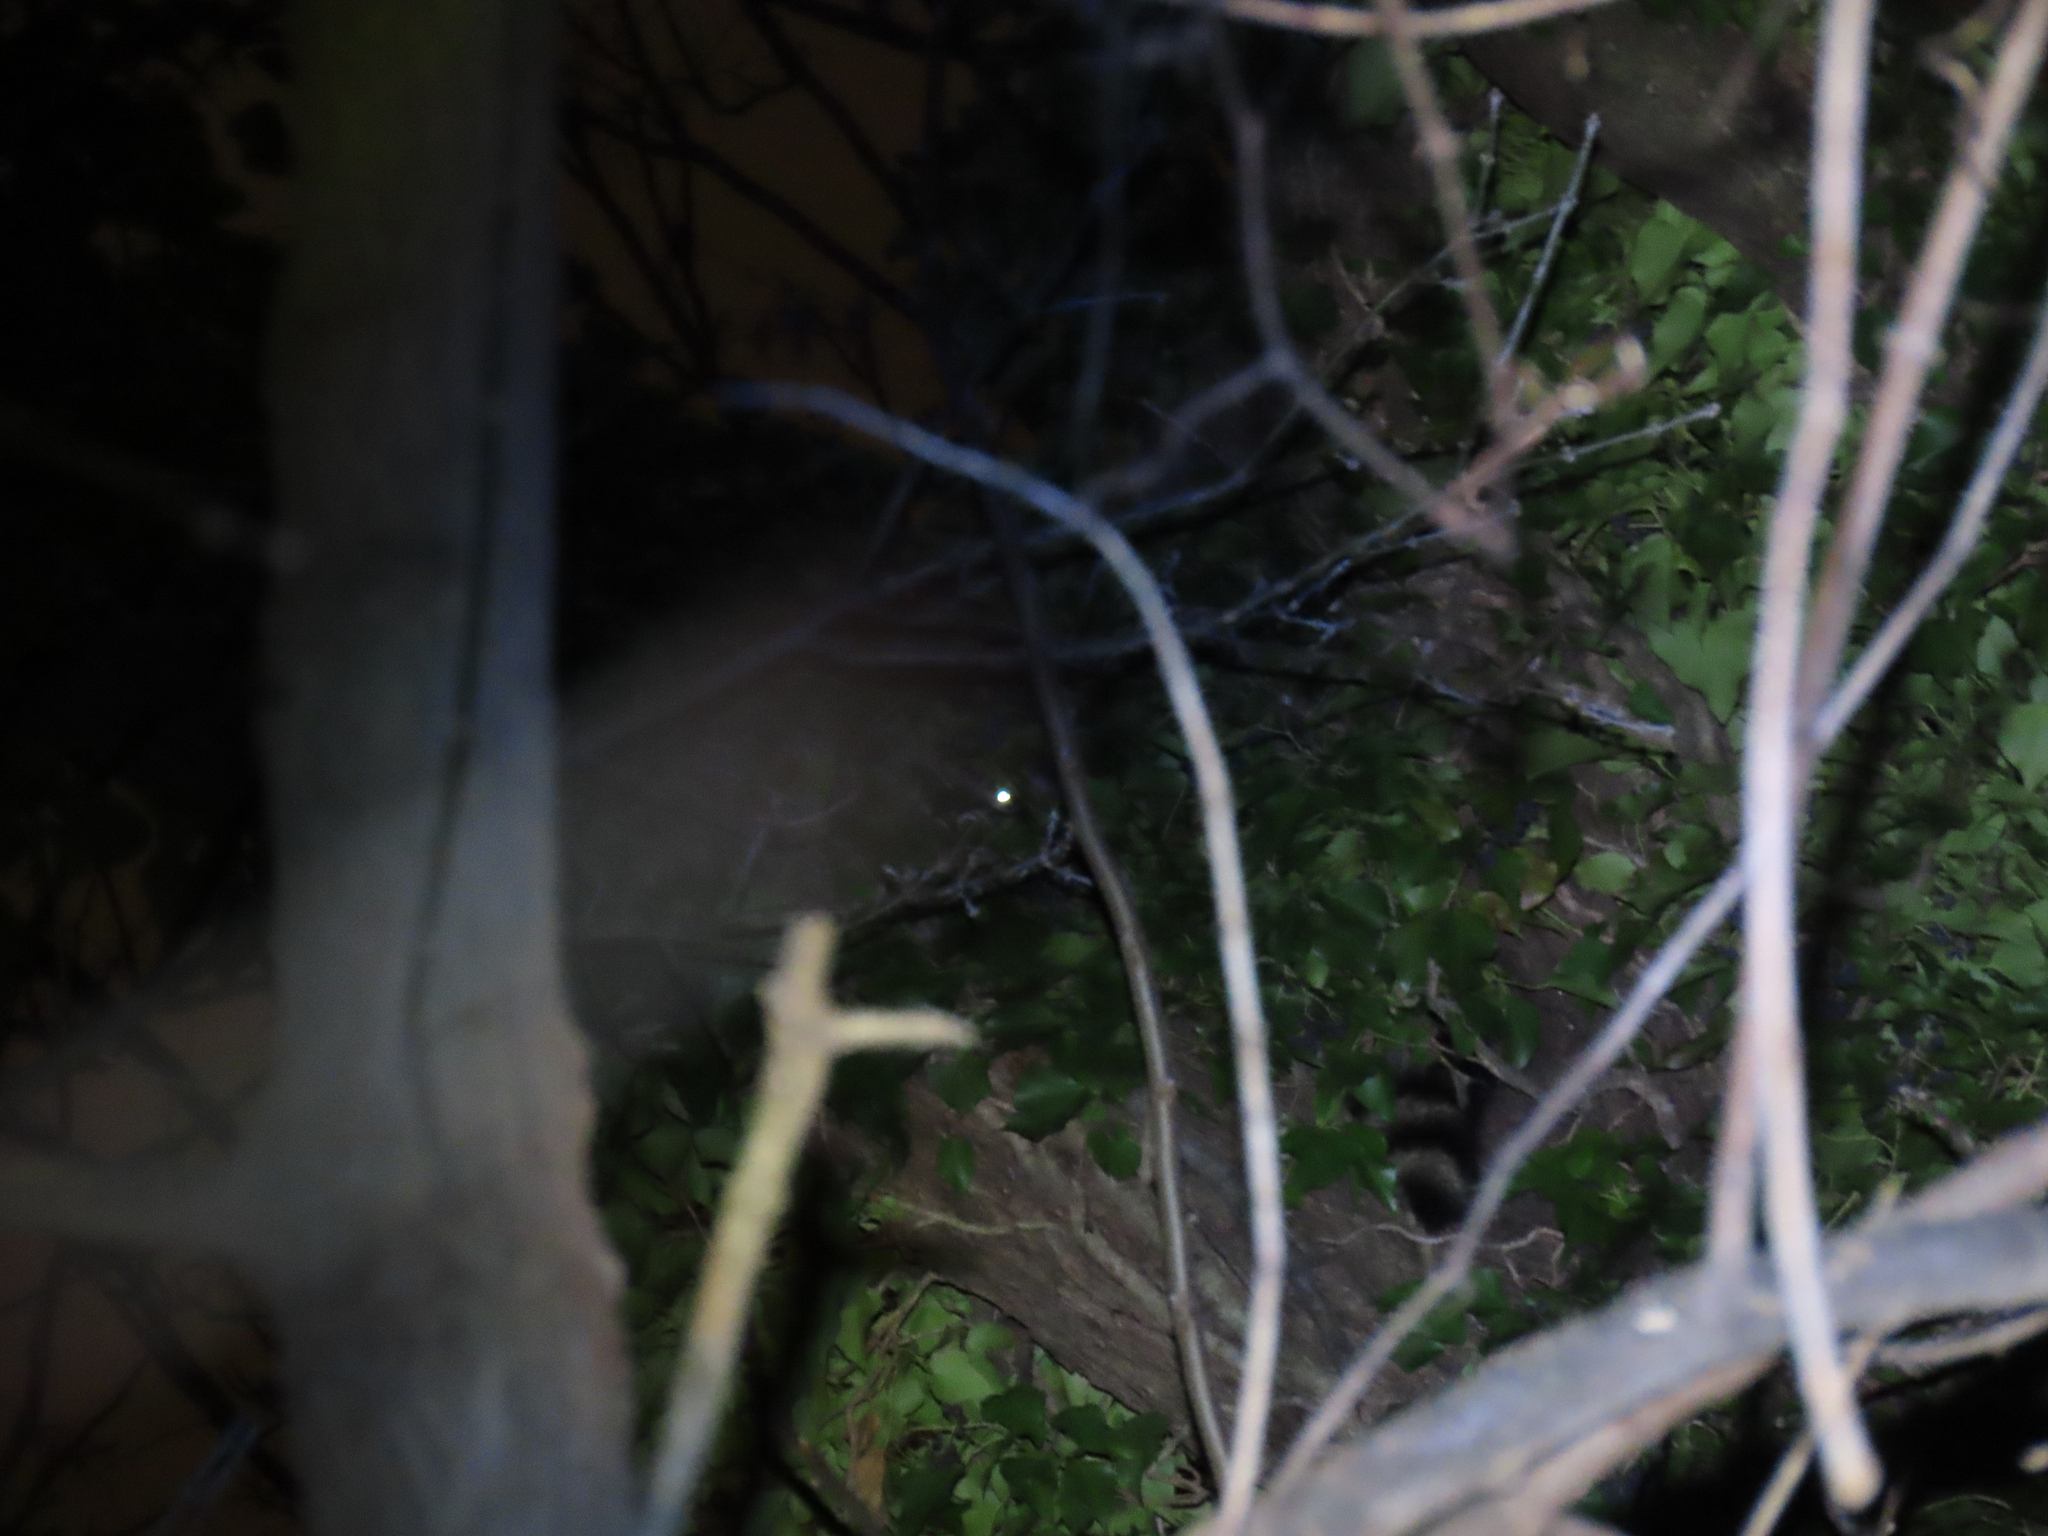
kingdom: Animalia
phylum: Chordata
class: Mammalia
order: Carnivora
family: Procyonidae
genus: Procyon
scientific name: Procyon lotor
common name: Raccoon
